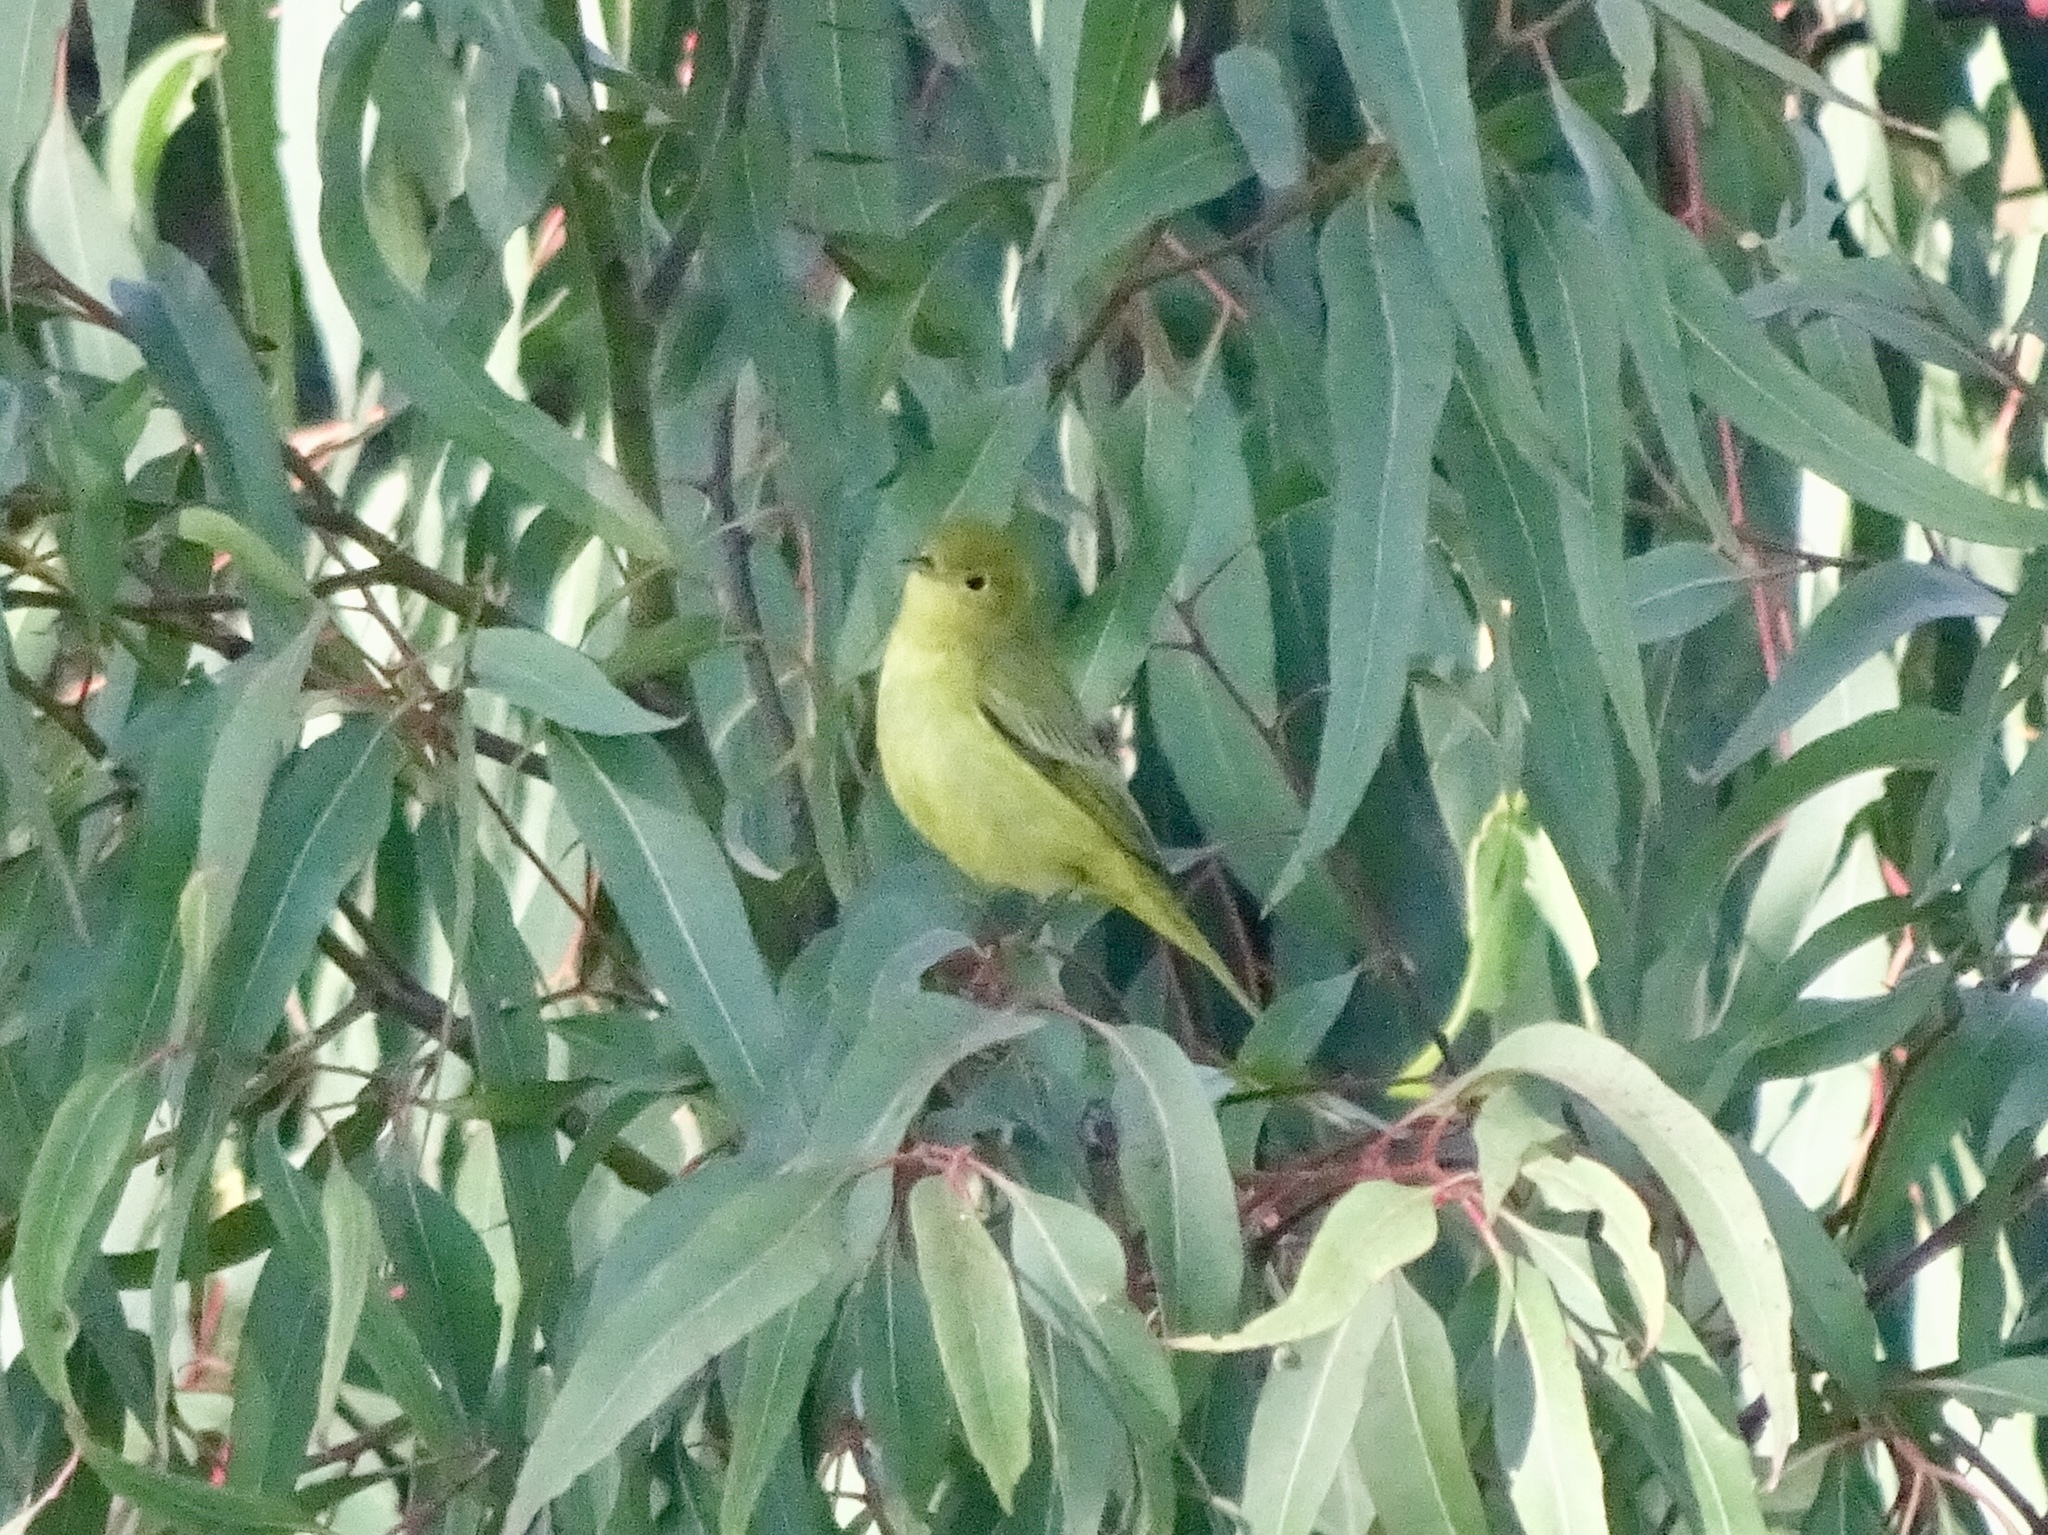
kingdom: Animalia
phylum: Chordata
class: Aves
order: Passeriformes
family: Parulidae
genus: Setophaga
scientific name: Setophaga petechia
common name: Yellow warbler
